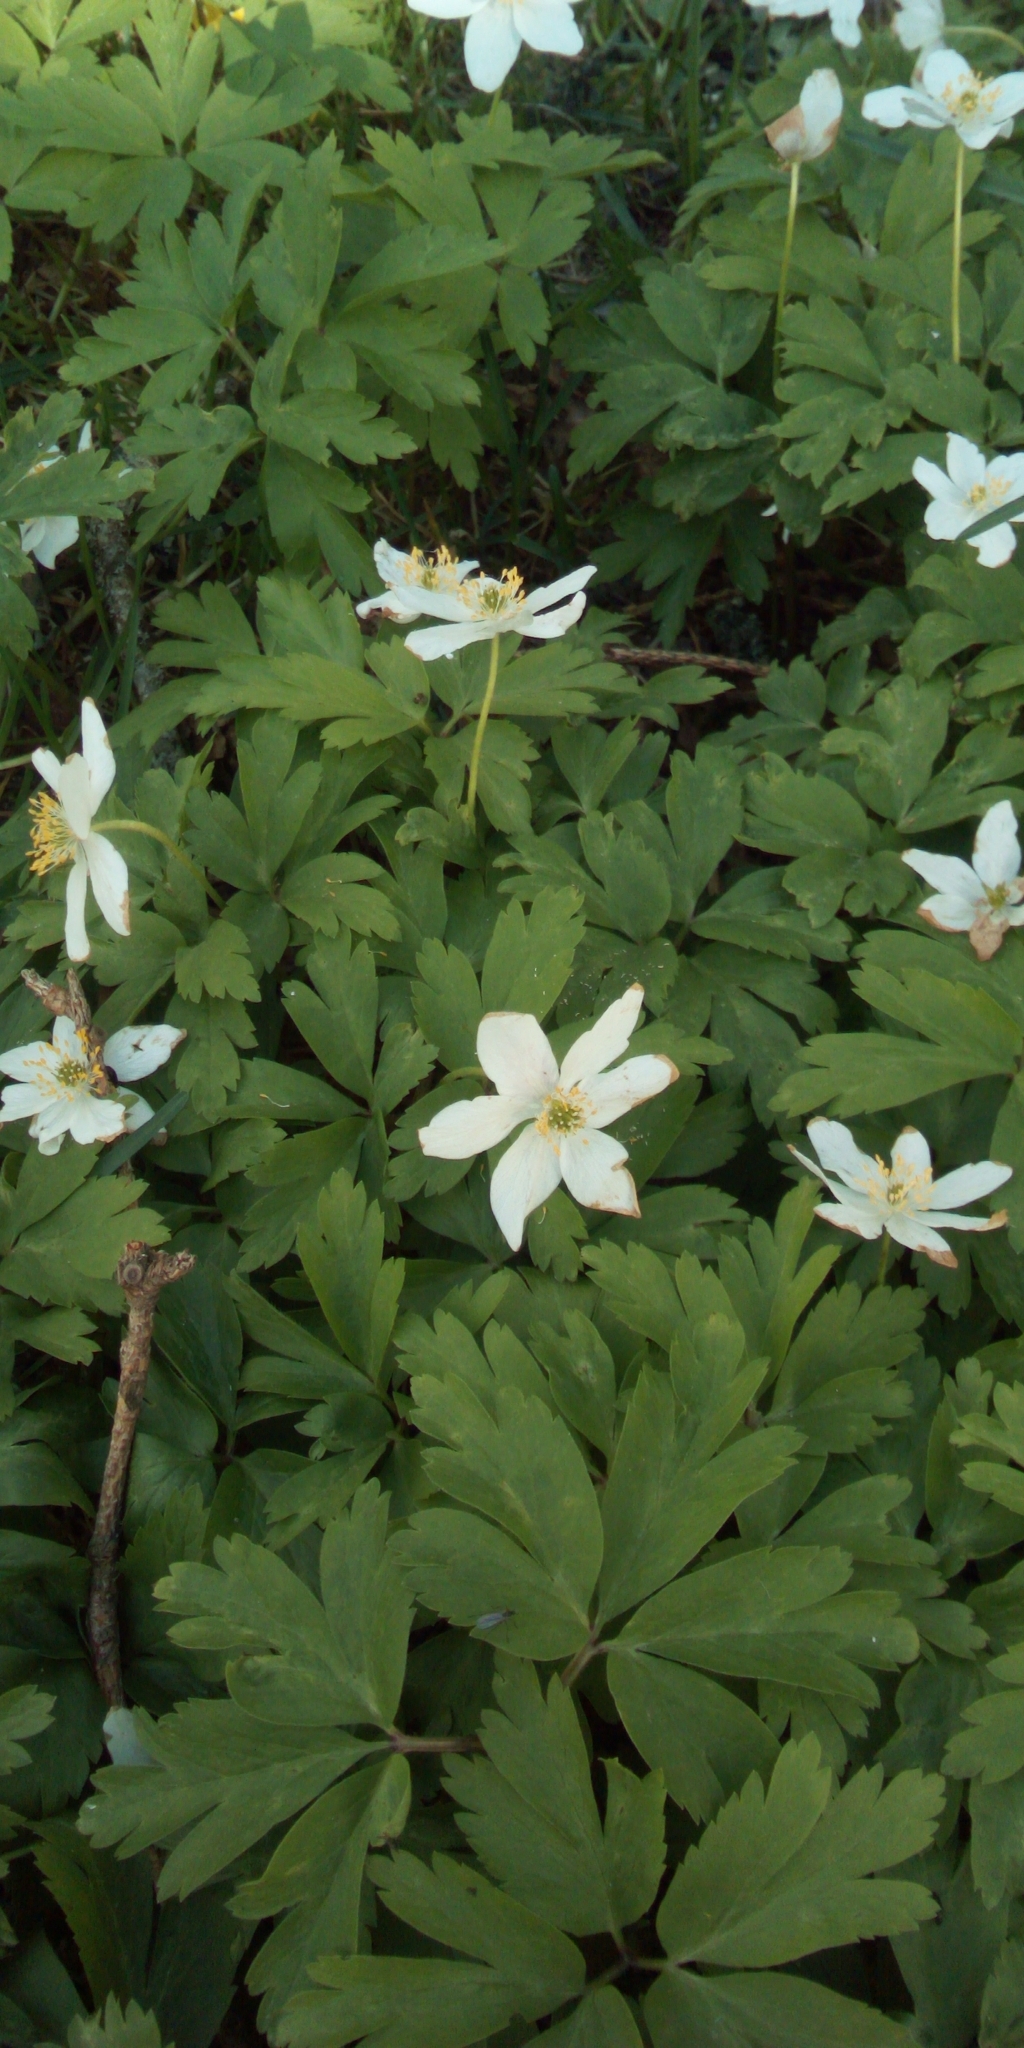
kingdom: Plantae
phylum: Tracheophyta
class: Magnoliopsida
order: Ranunculales
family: Ranunculaceae
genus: Anemone
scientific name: Anemone nemorosa
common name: Wood anemone
